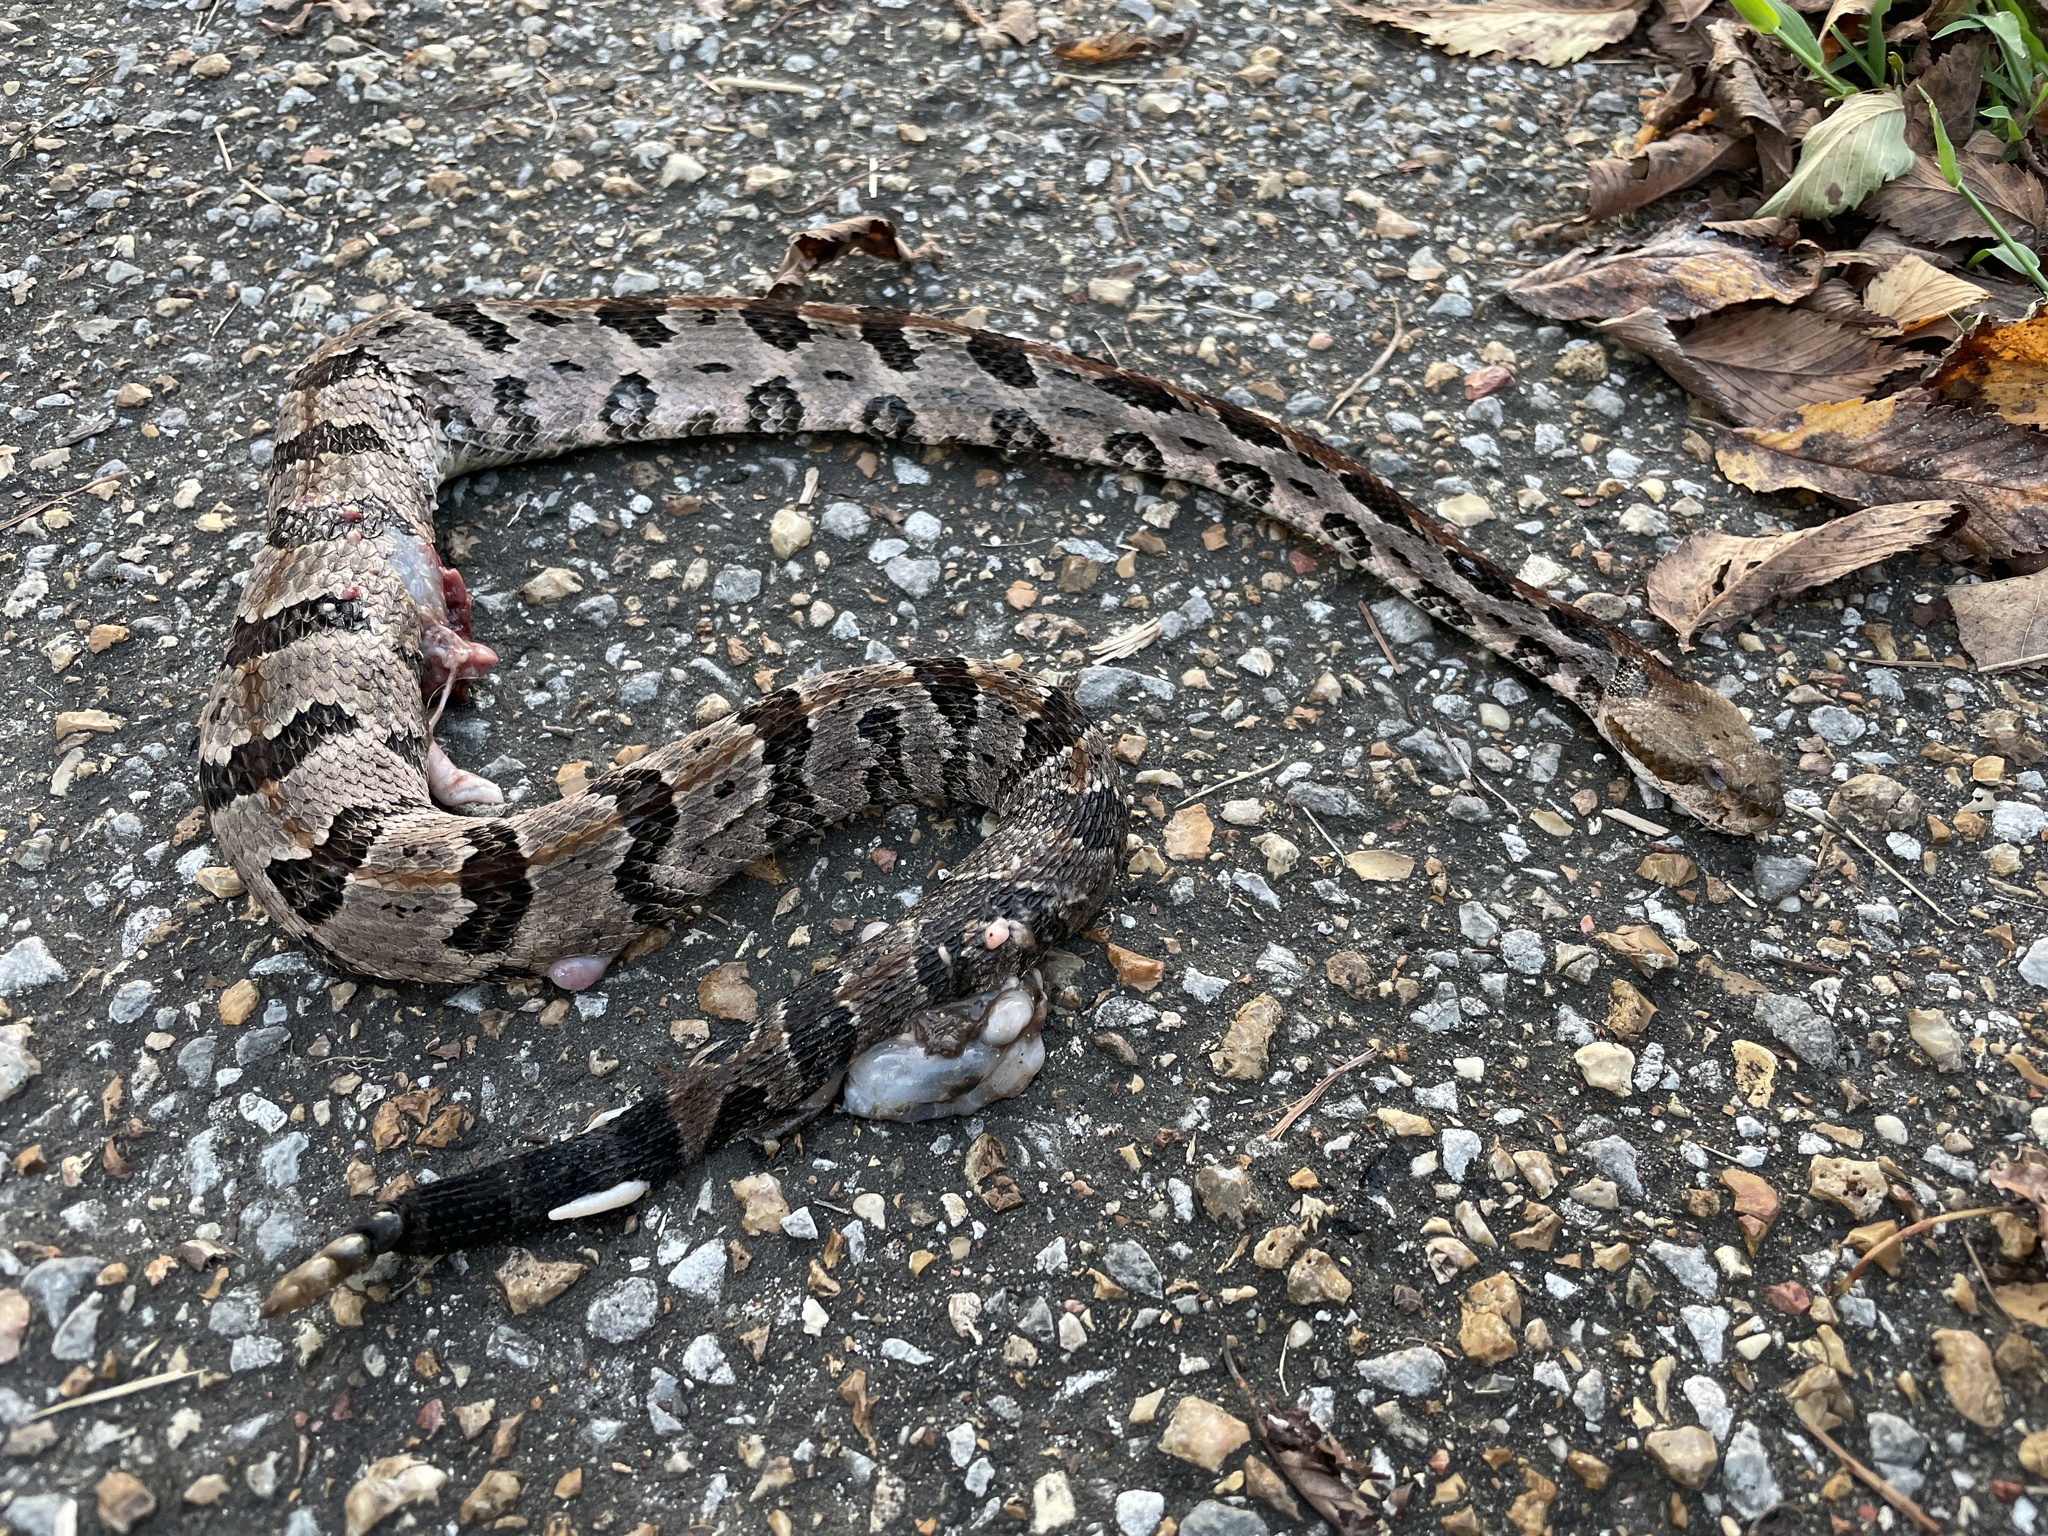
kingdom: Animalia
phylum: Chordata
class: Squamata
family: Viperidae
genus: Crotalus
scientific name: Crotalus horridus
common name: Timber rattlesnake
